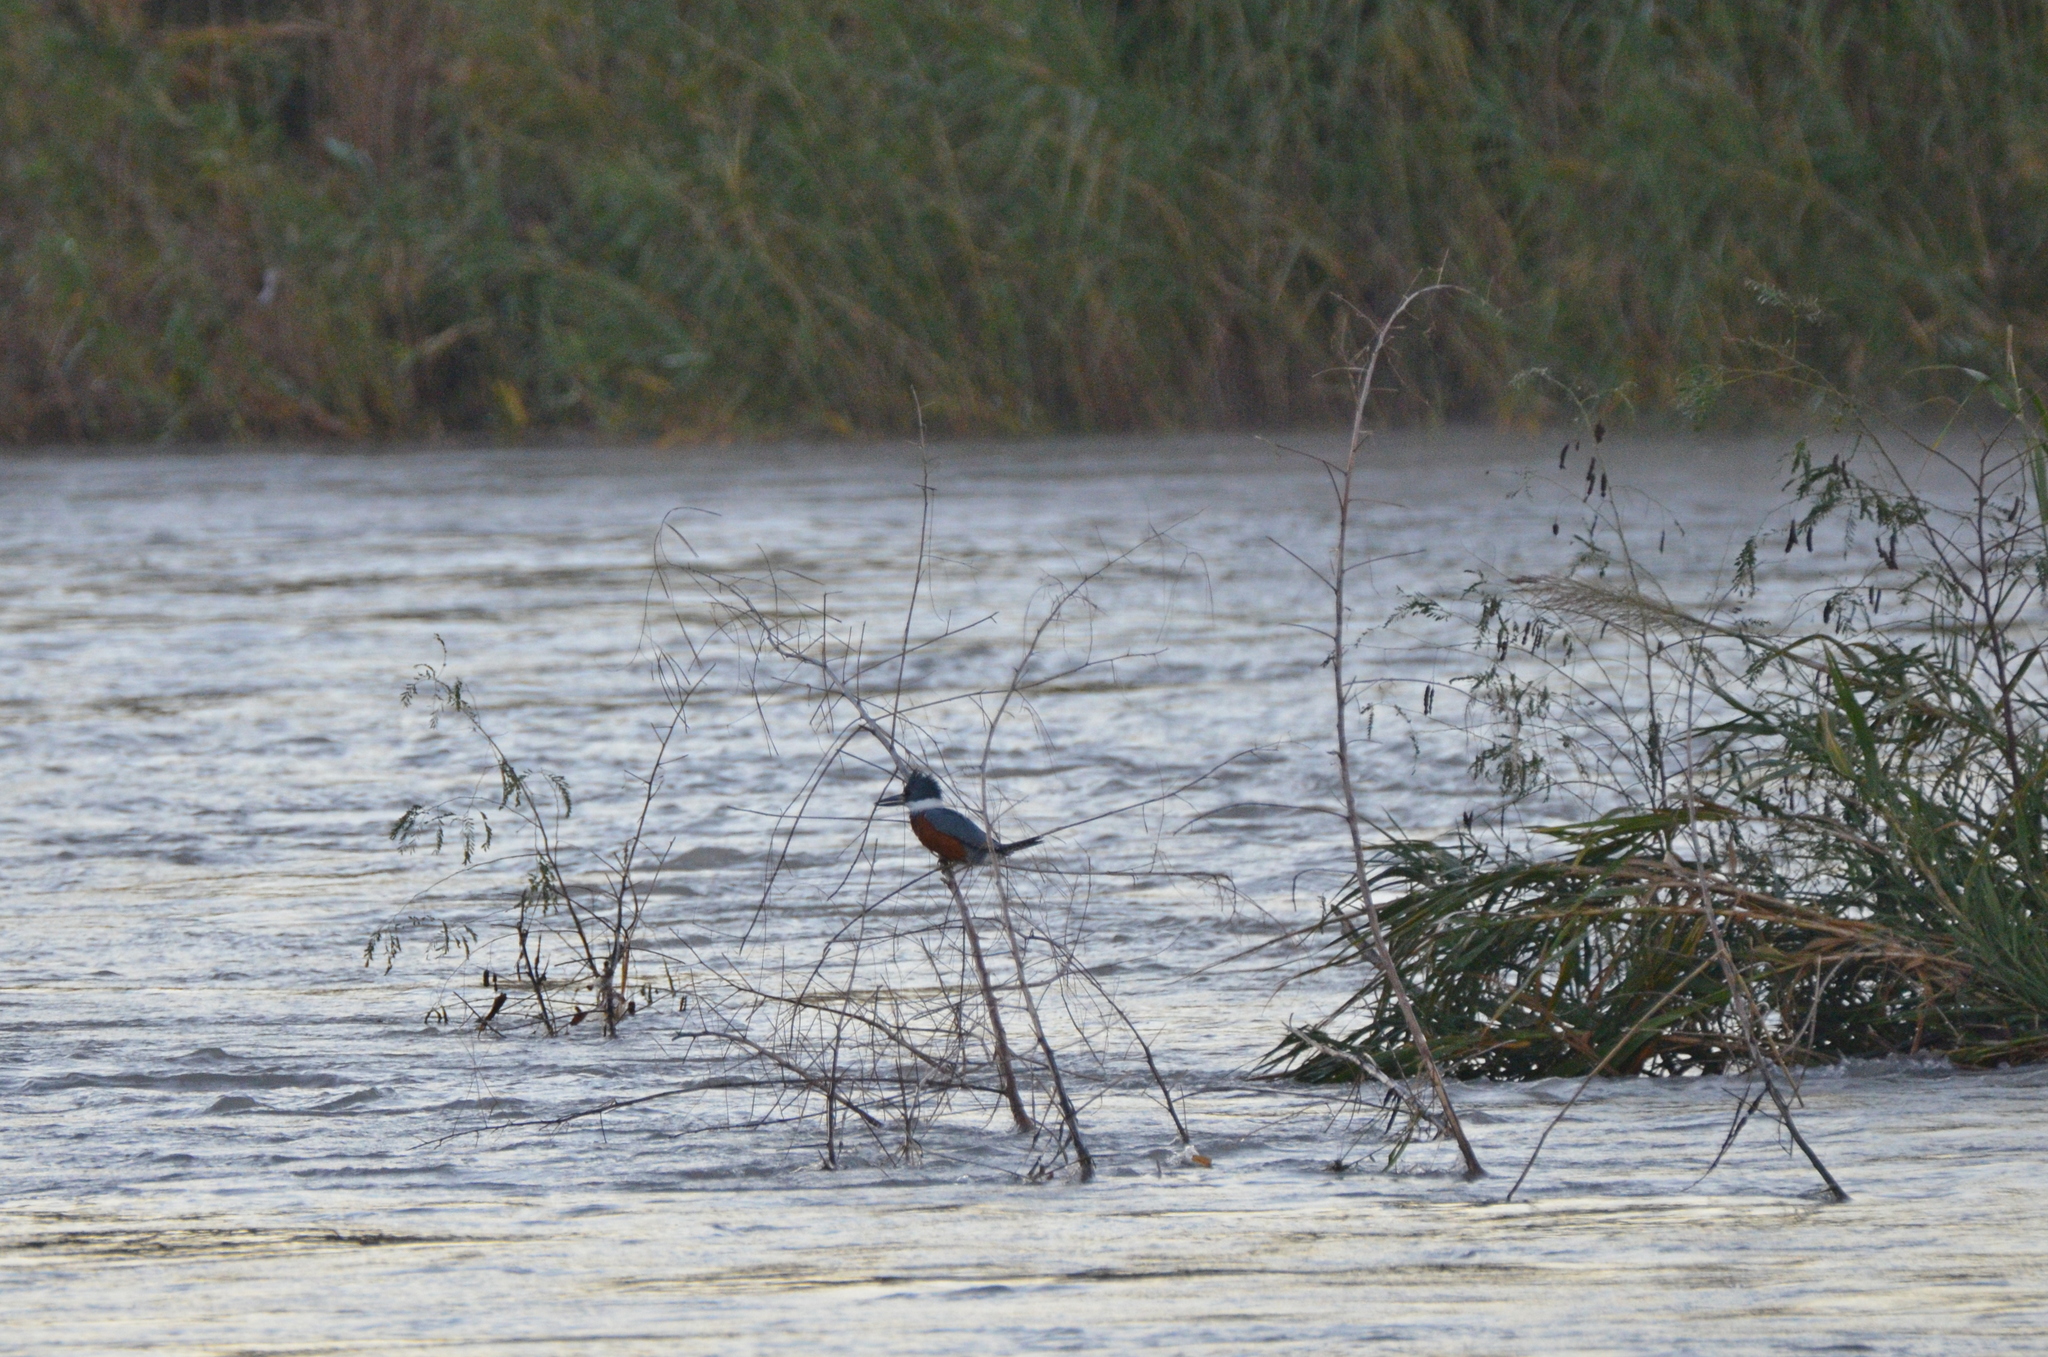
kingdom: Animalia
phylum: Chordata
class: Aves
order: Coraciiformes
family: Alcedinidae
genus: Megaceryle
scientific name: Megaceryle torquata
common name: Ringed kingfisher
